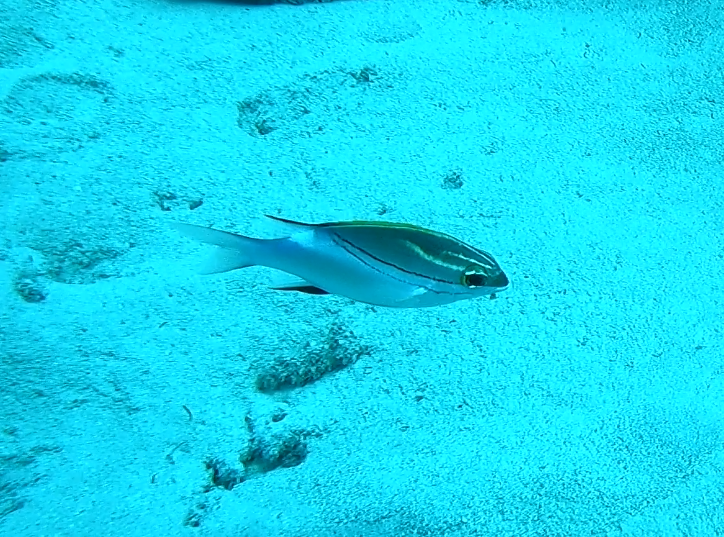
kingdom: Animalia
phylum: Chordata
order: Perciformes
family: Nemipteridae
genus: Scolopsis
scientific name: Scolopsis bilineata
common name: Two-lined monocle bream
